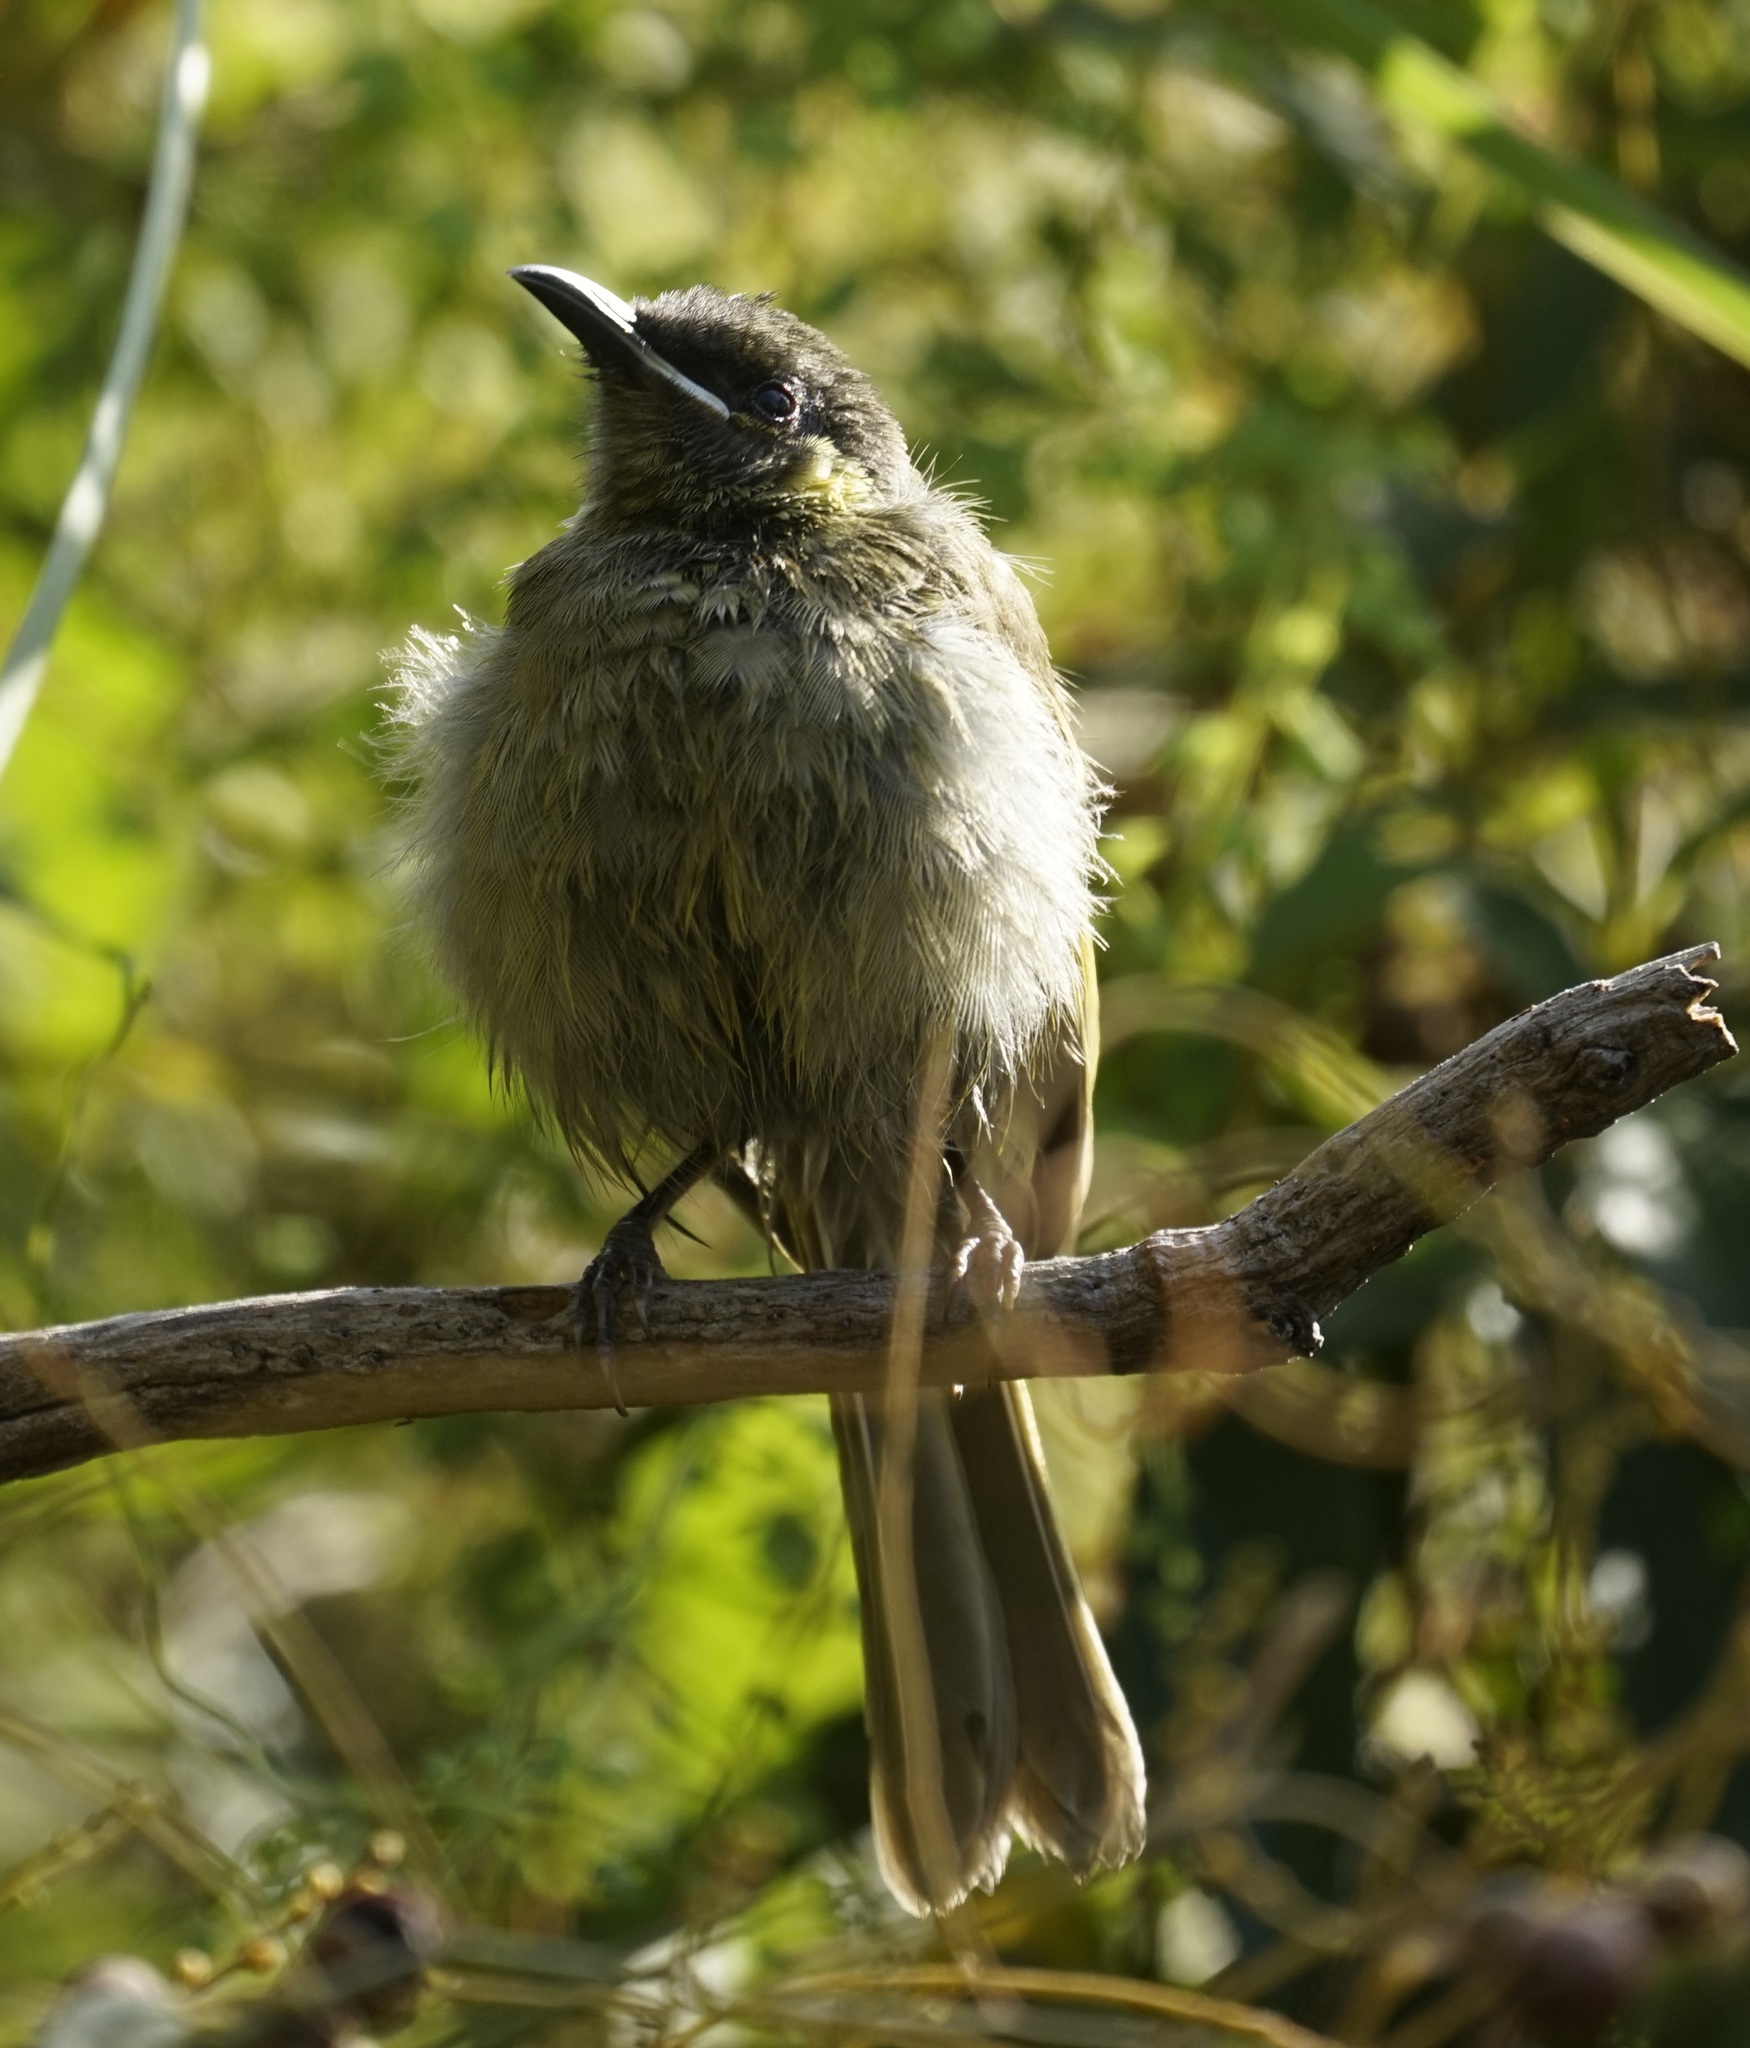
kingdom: Animalia
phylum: Chordata
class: Aves
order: Passeriformes
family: Meliphagidae
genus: Meliphaga
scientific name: Meliphaga lewinii
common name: Lewin's honeyeater
